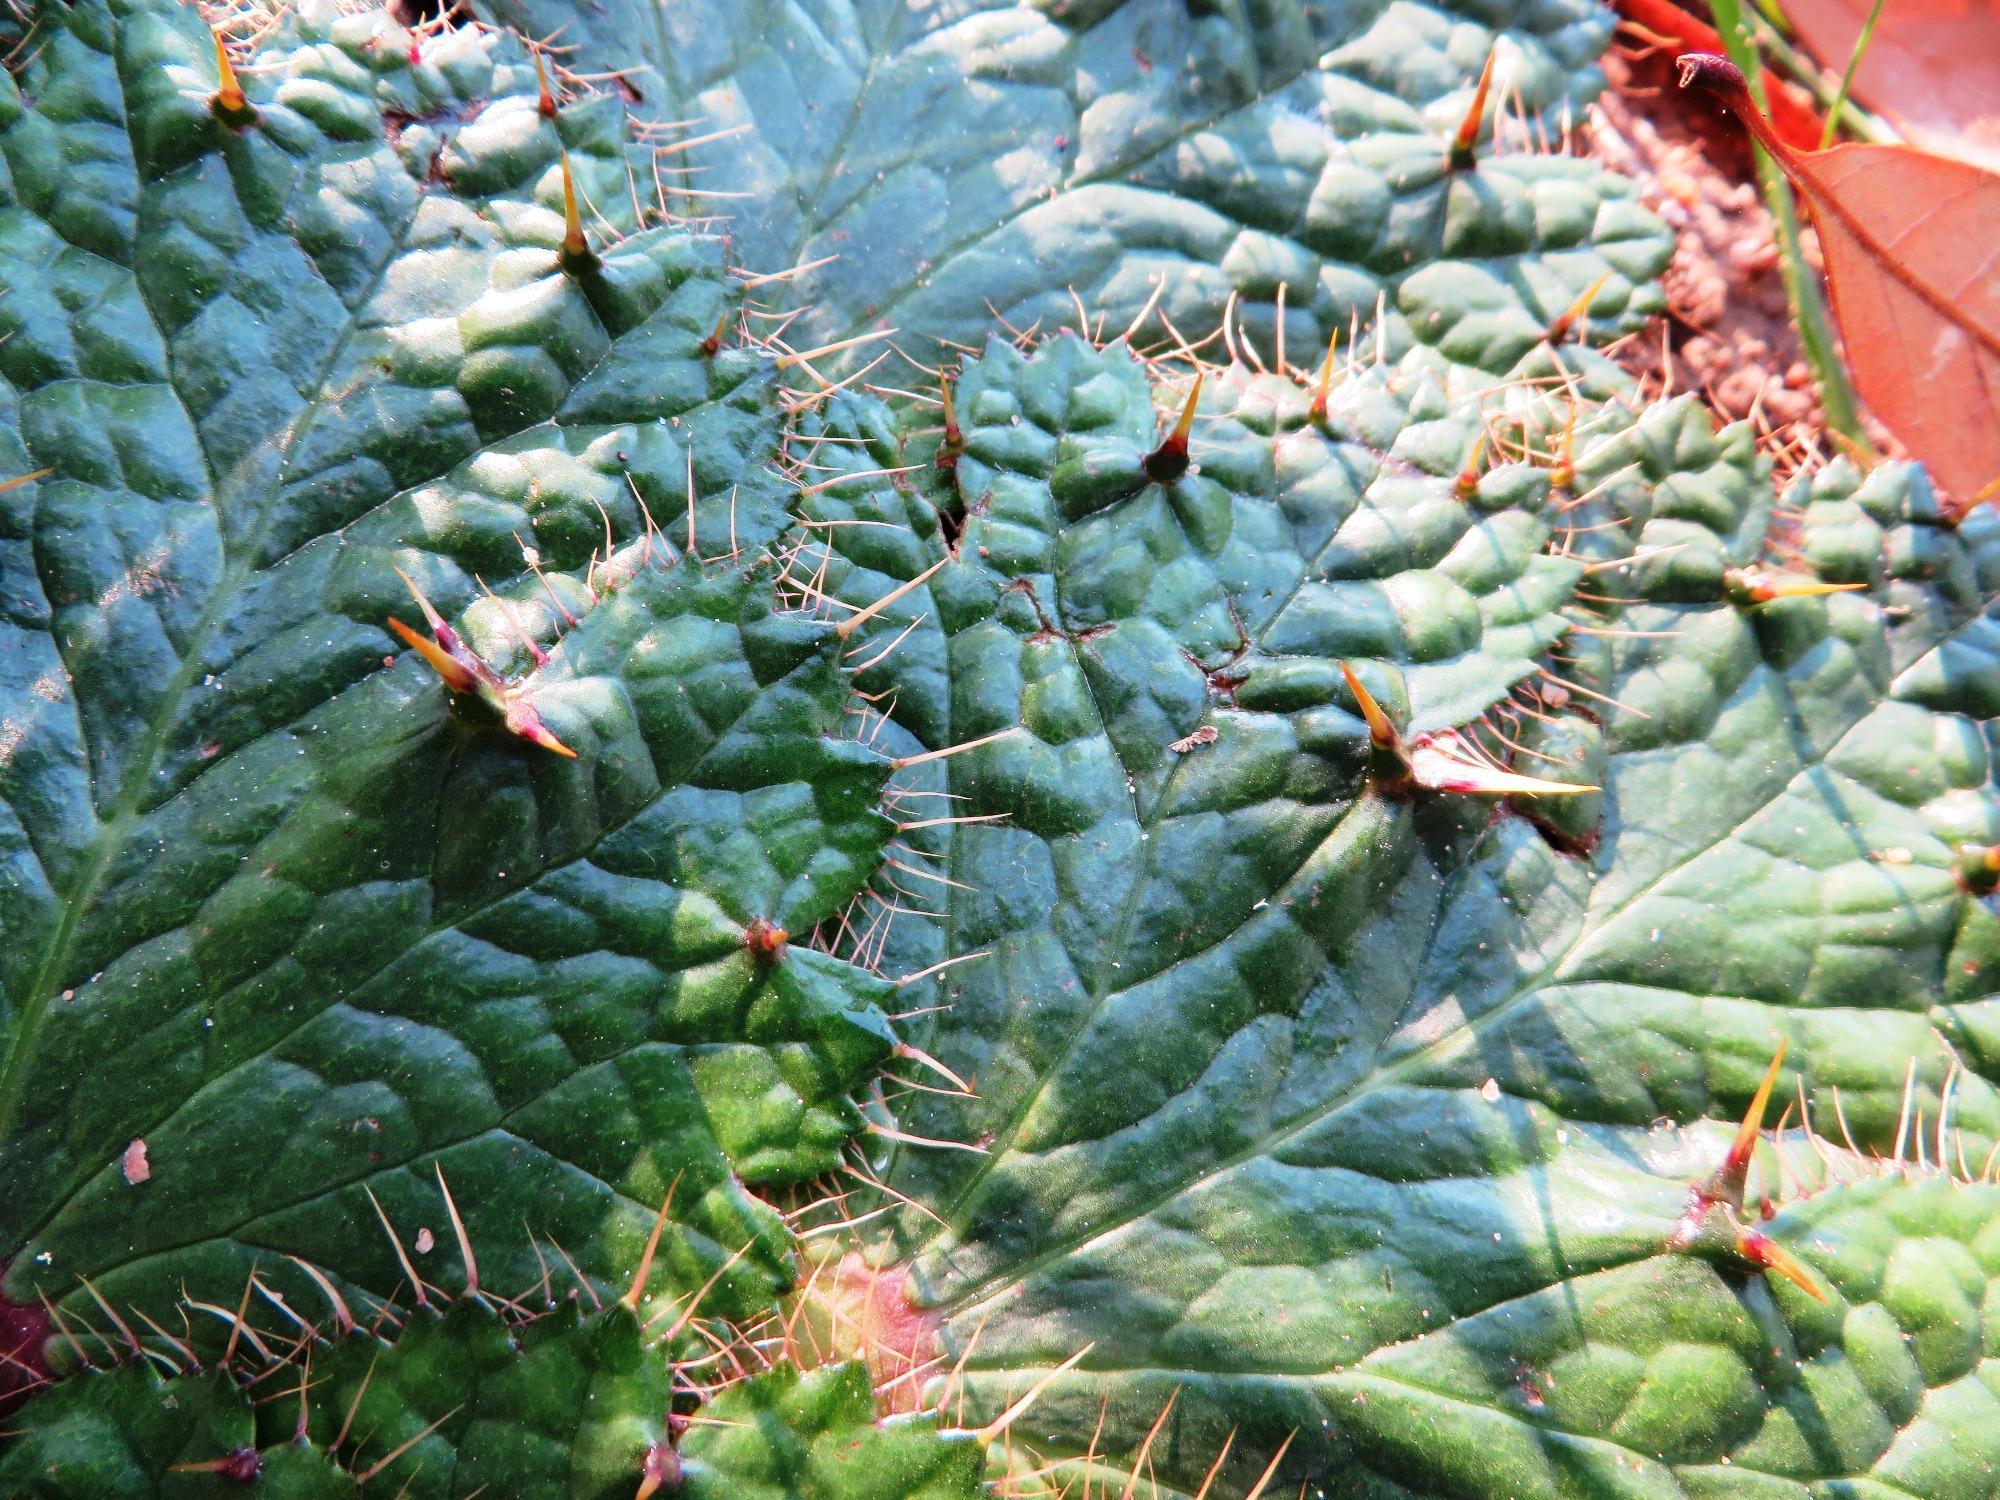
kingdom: Plantae
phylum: Tracheophyta
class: Magnoliopsida
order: Apiales
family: Apiaceae
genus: Arctopus
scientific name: Arctopus echinatus
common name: Platdoring
